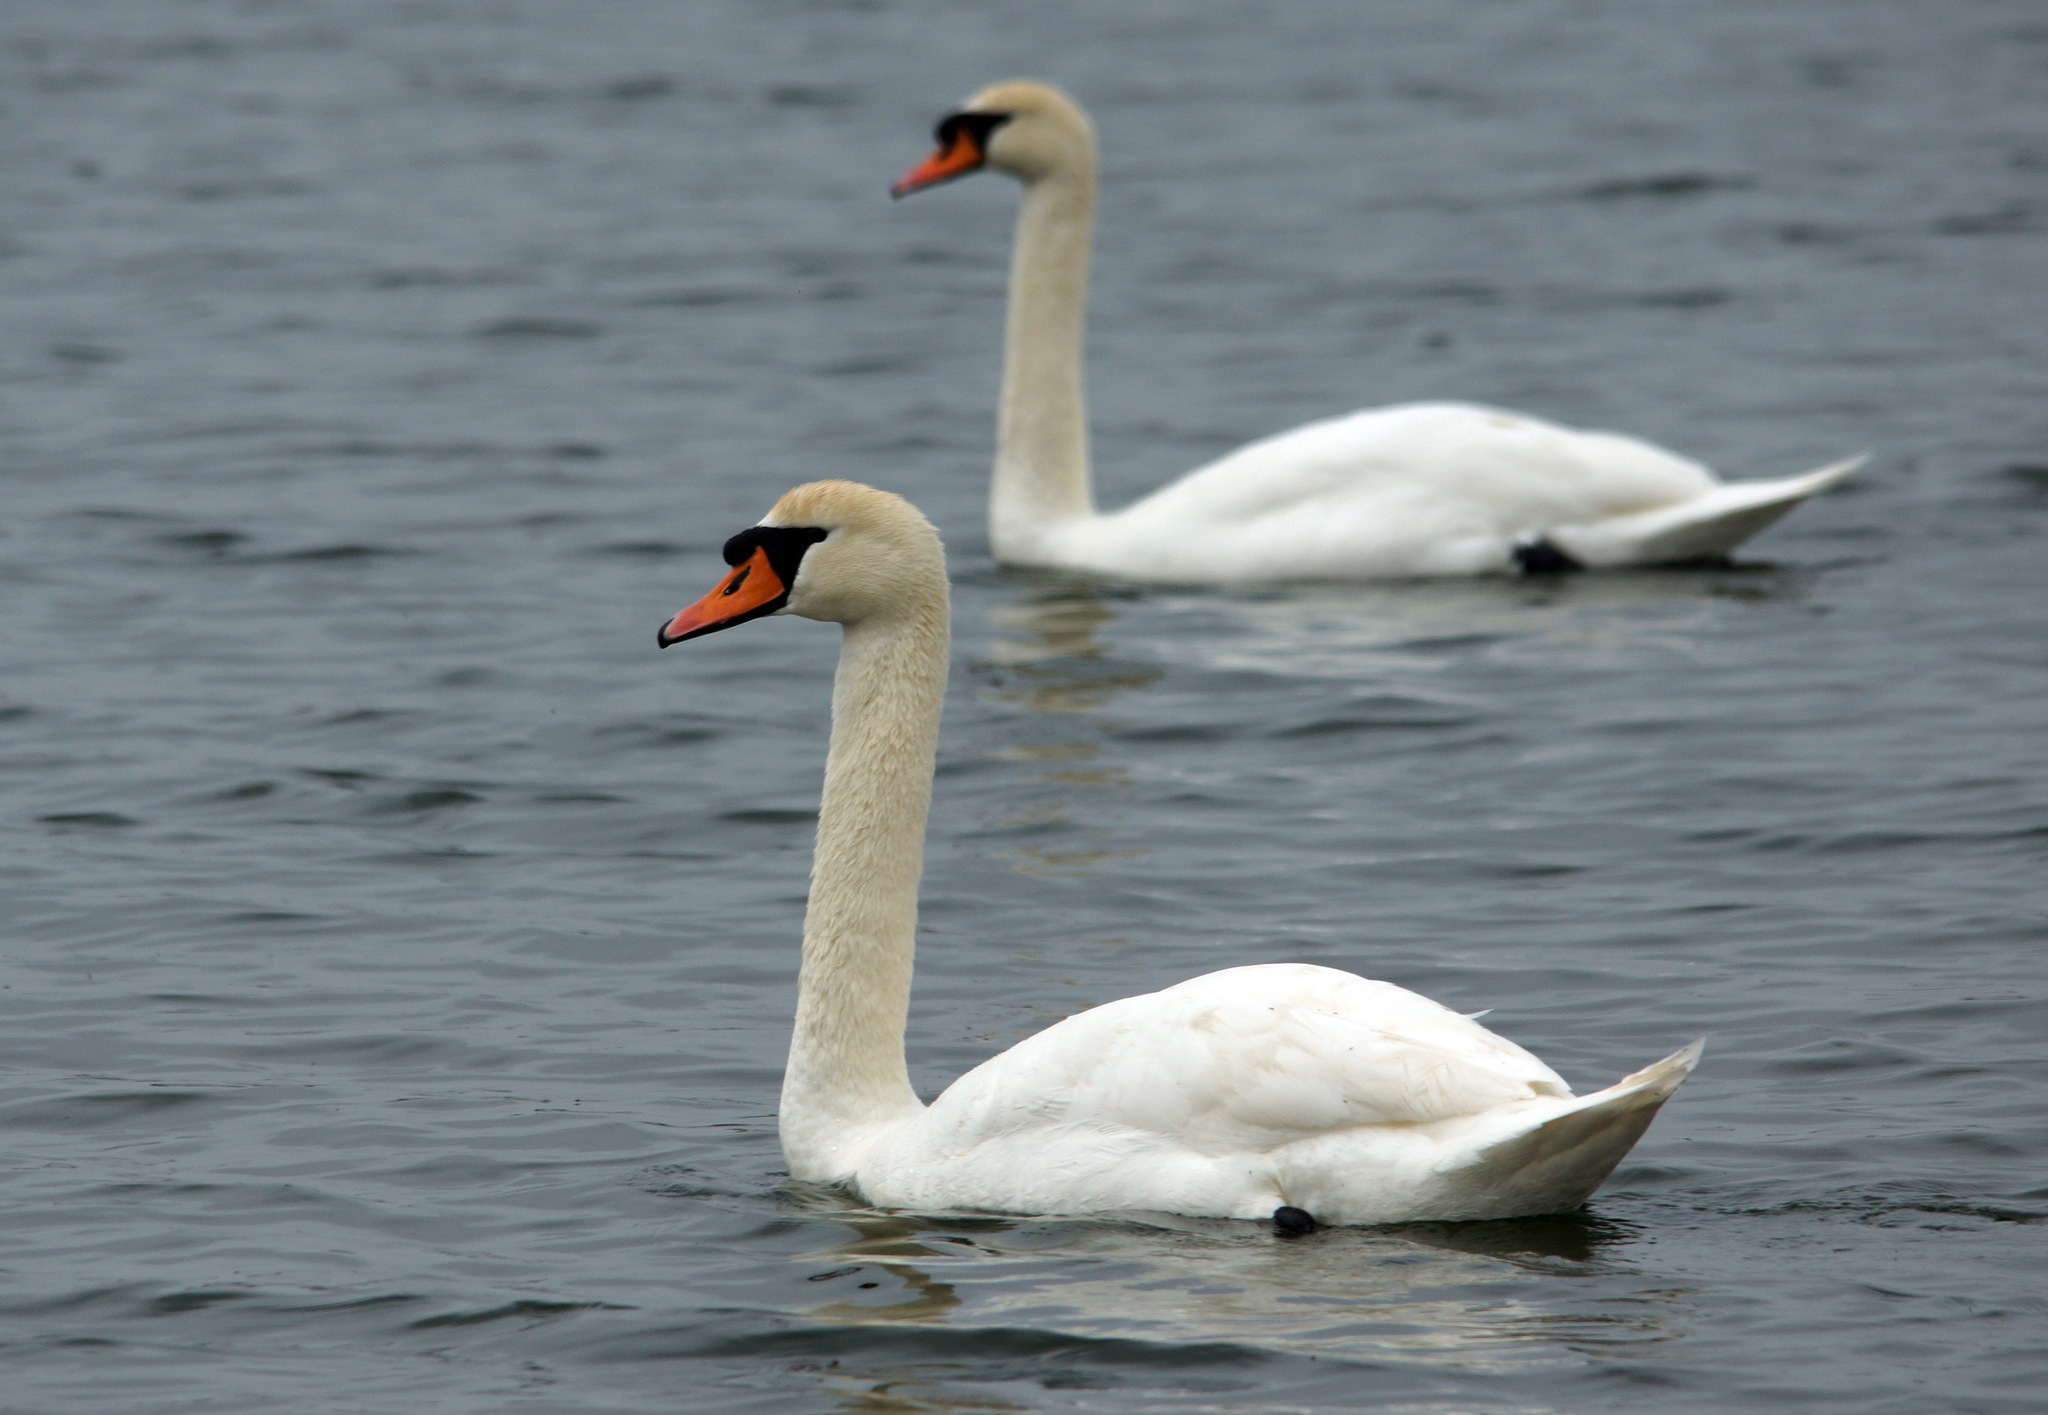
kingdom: Animalia
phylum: Chordata
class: Aves
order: Anseriformes
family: Anatidae
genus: Cygnus
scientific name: Cygnus olor
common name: Mute swan
